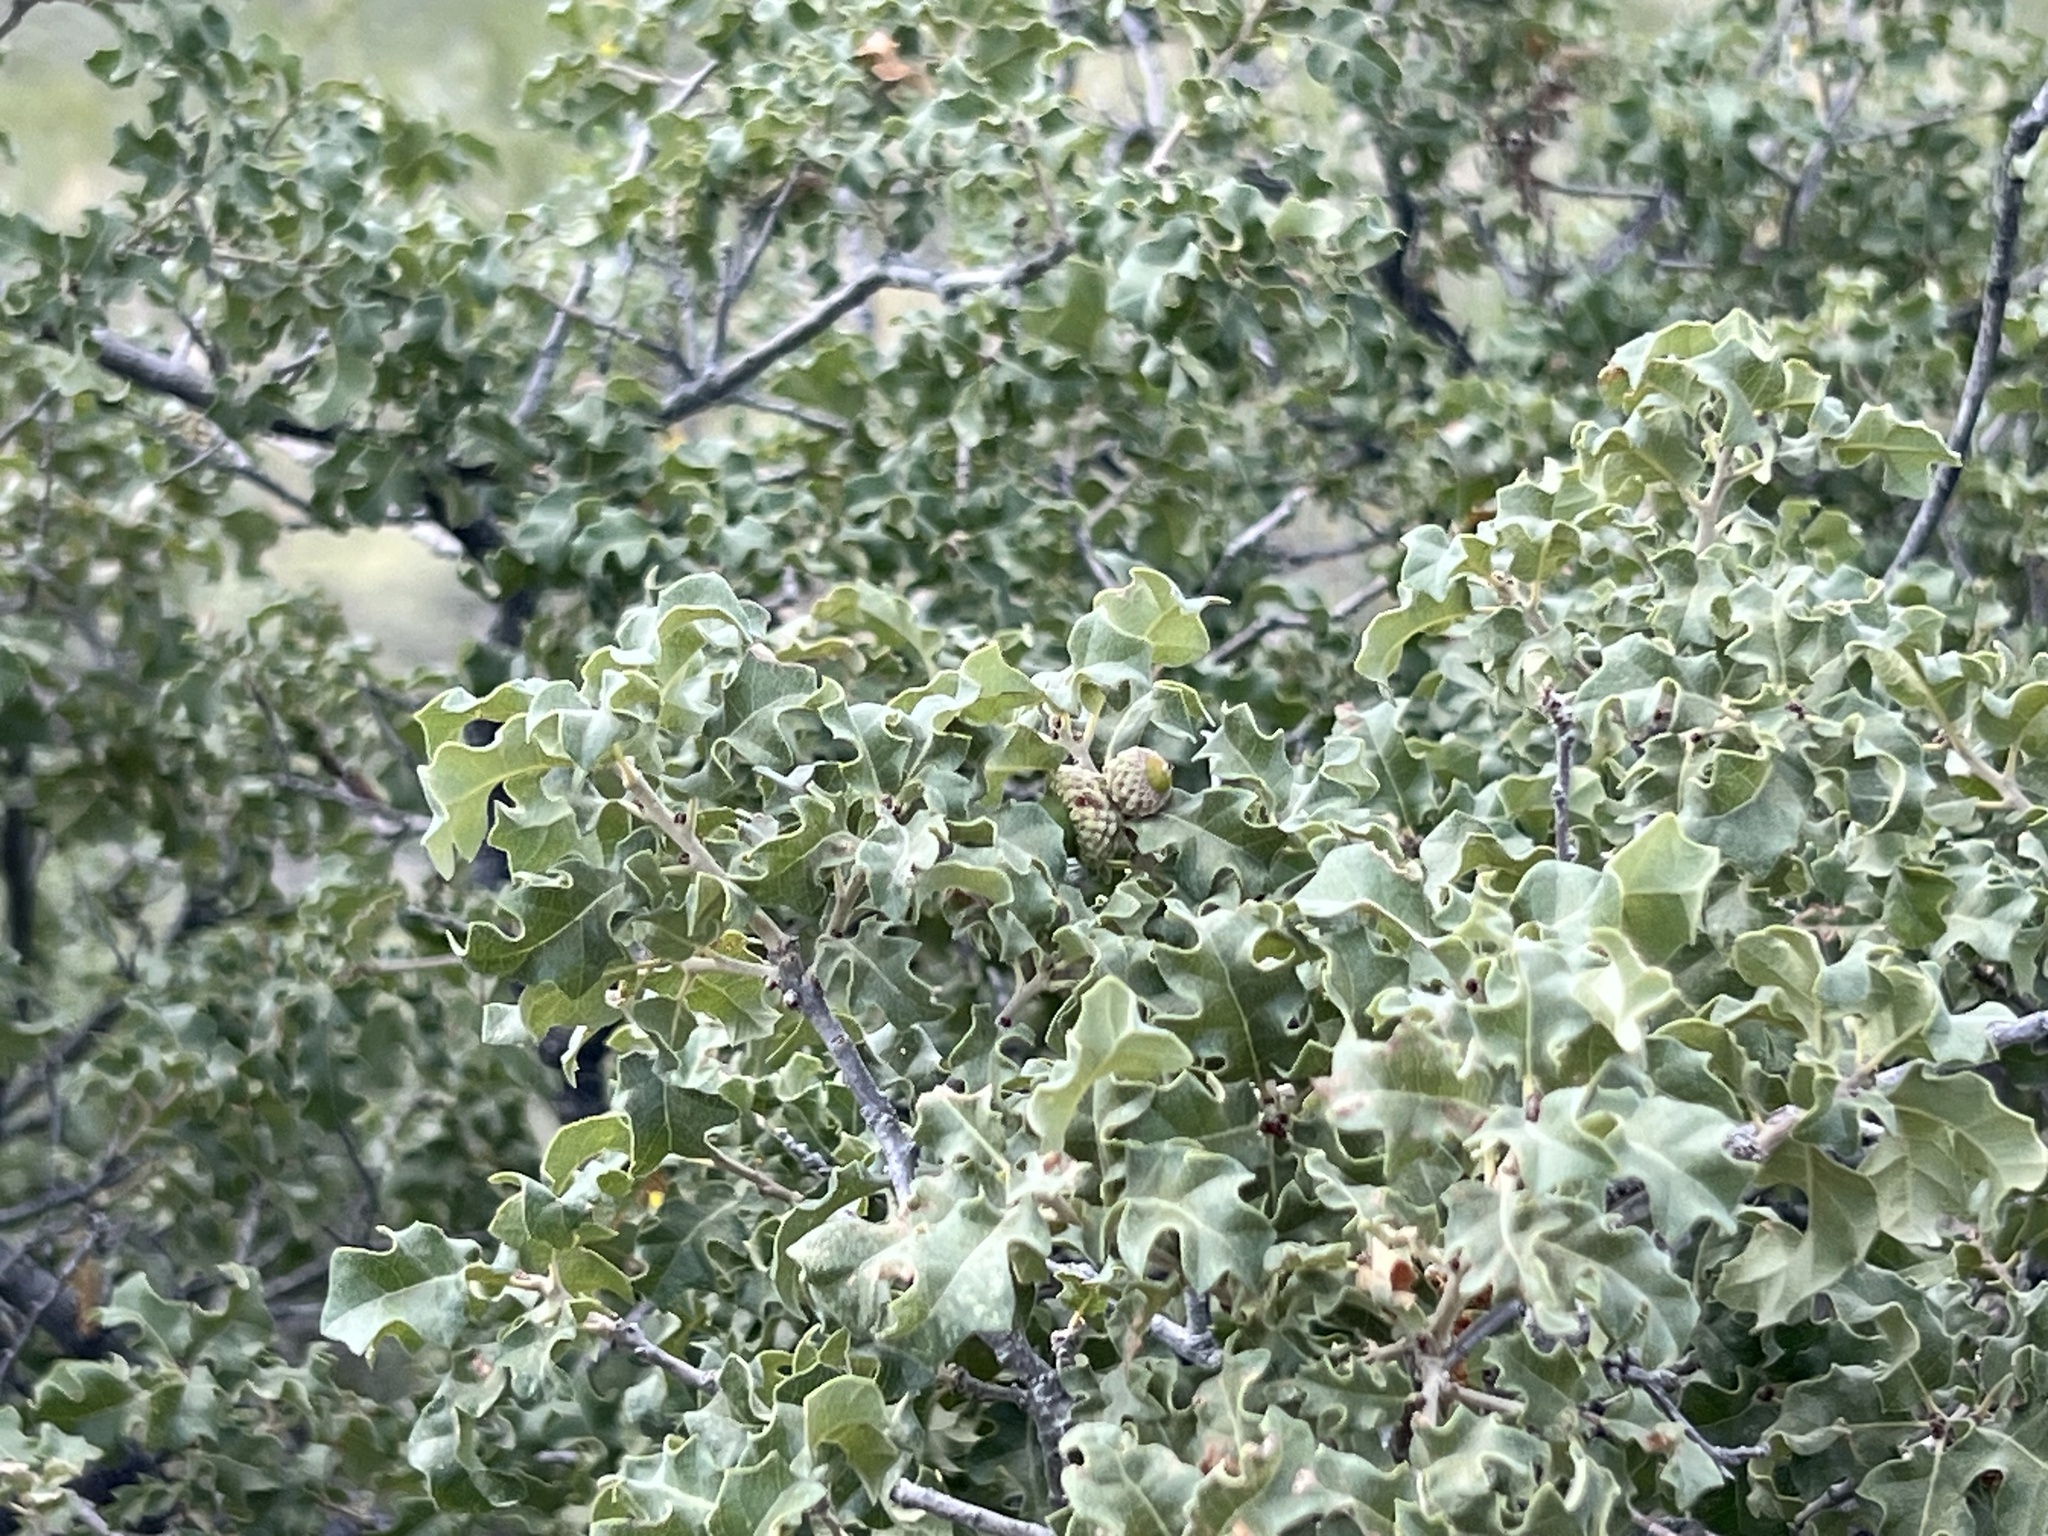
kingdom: Plantae
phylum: Tracheophyta
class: Magnoliopsida
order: Fagales
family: Fagaceae
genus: Quercus
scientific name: Quercus pungens
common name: Pungent oak
